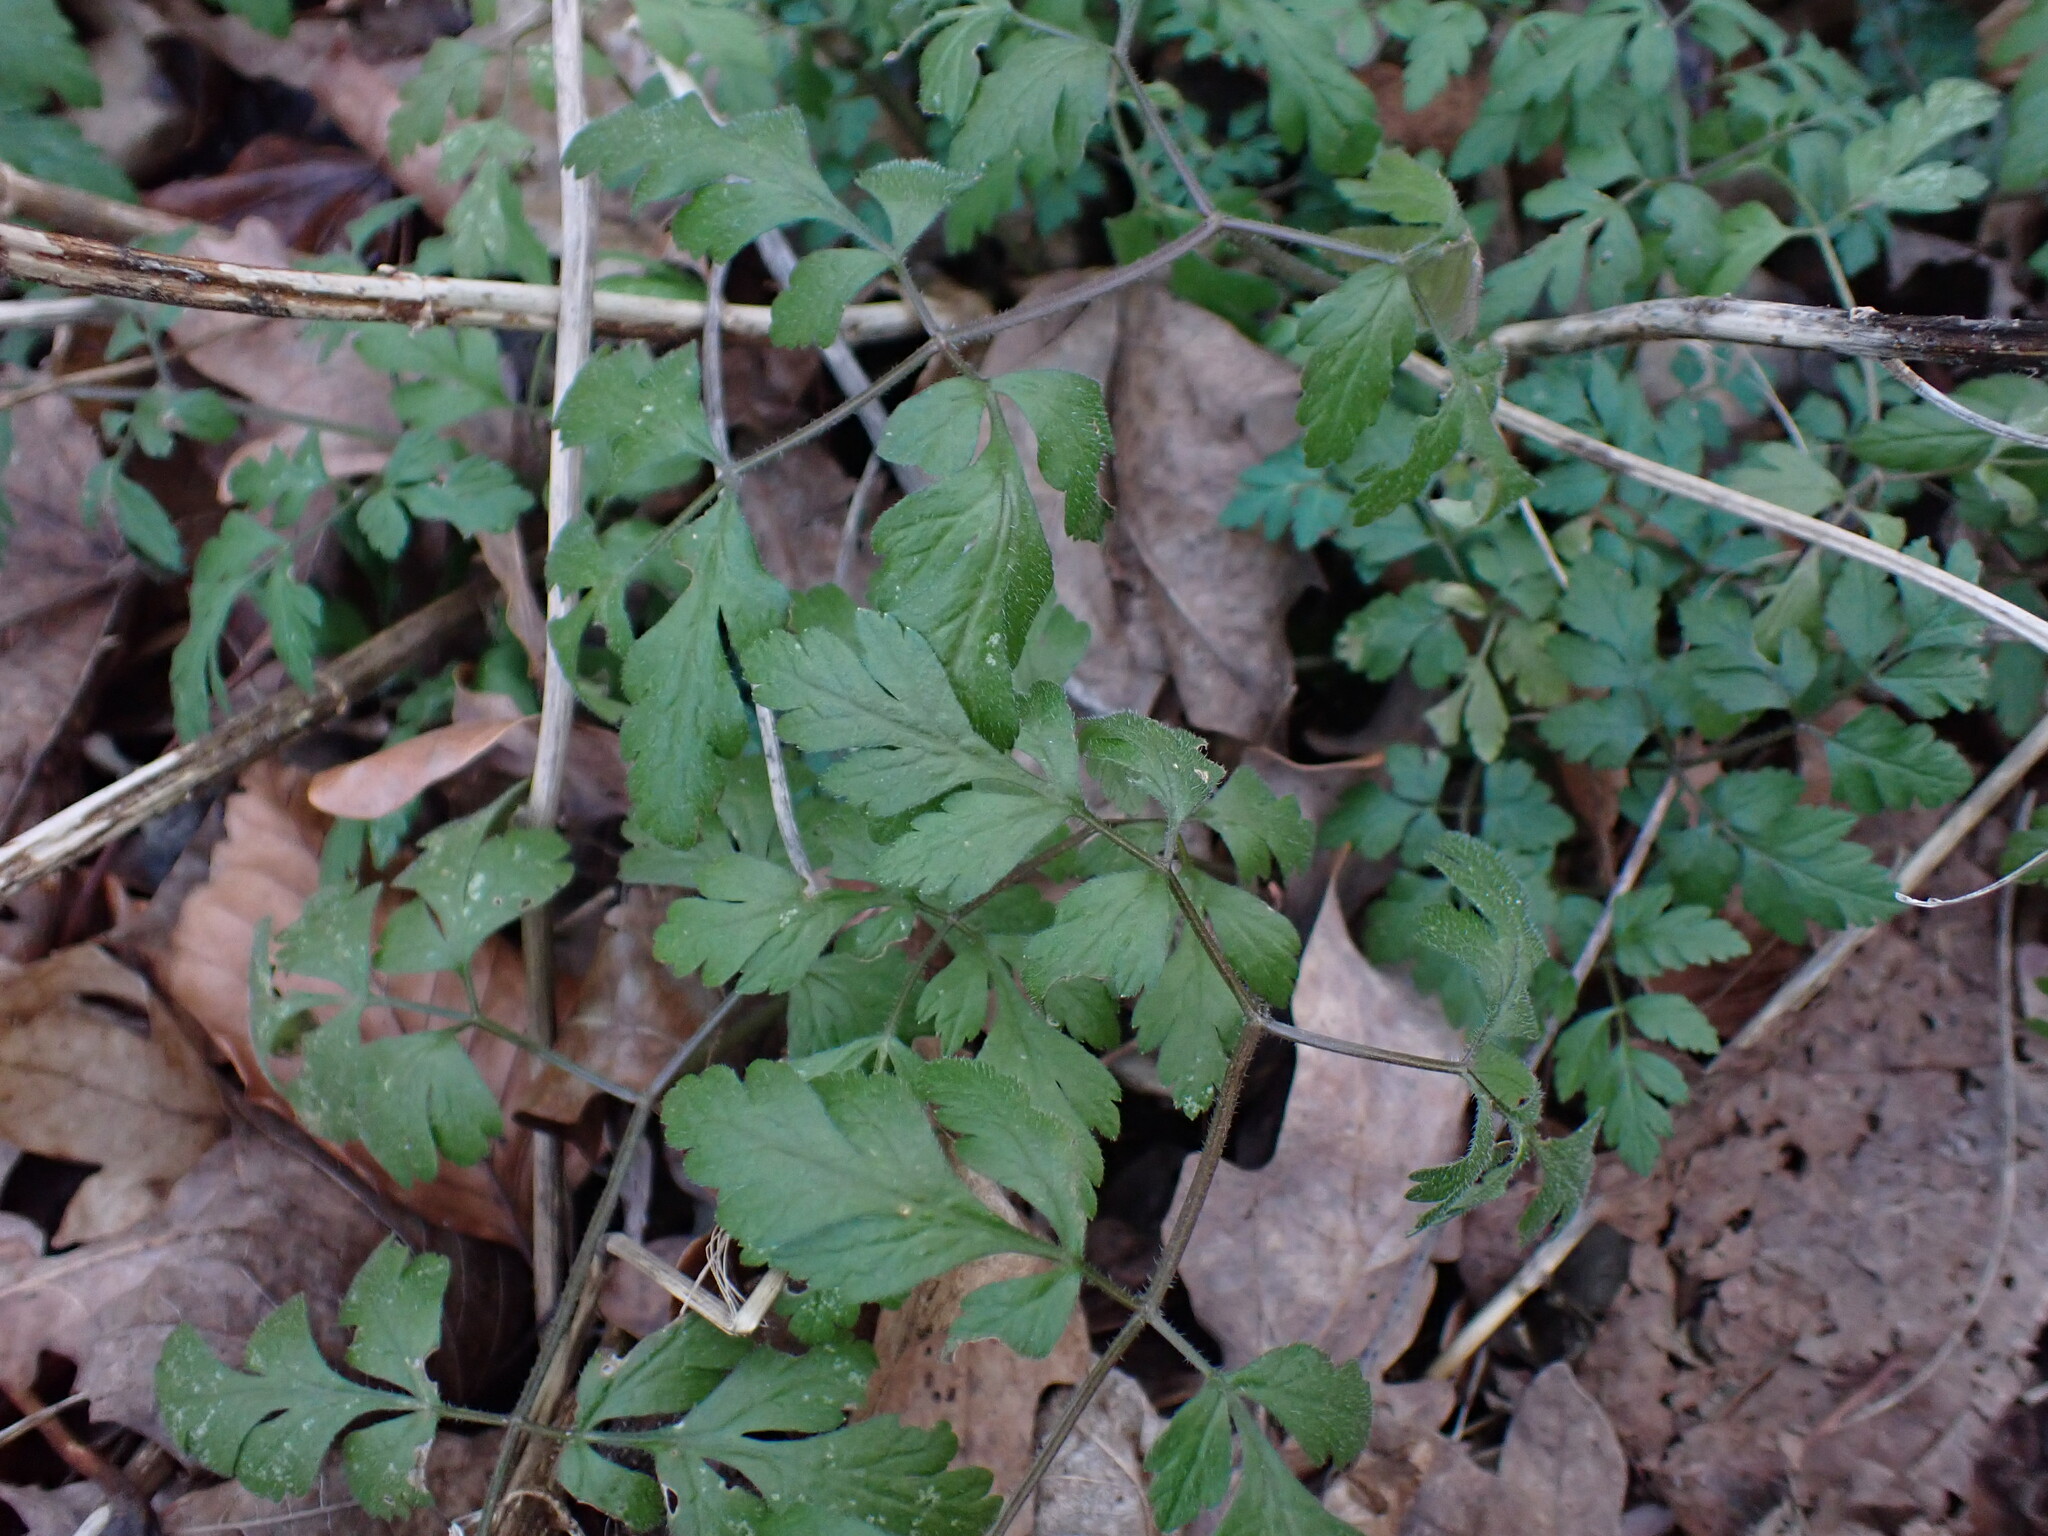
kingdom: Plantae
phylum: Tracheophyta
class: Magnoliopsida
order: Apiales
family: Apiaceae
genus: Chaerophyllum
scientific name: Chaerophyllum temulum
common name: Rough chervil
